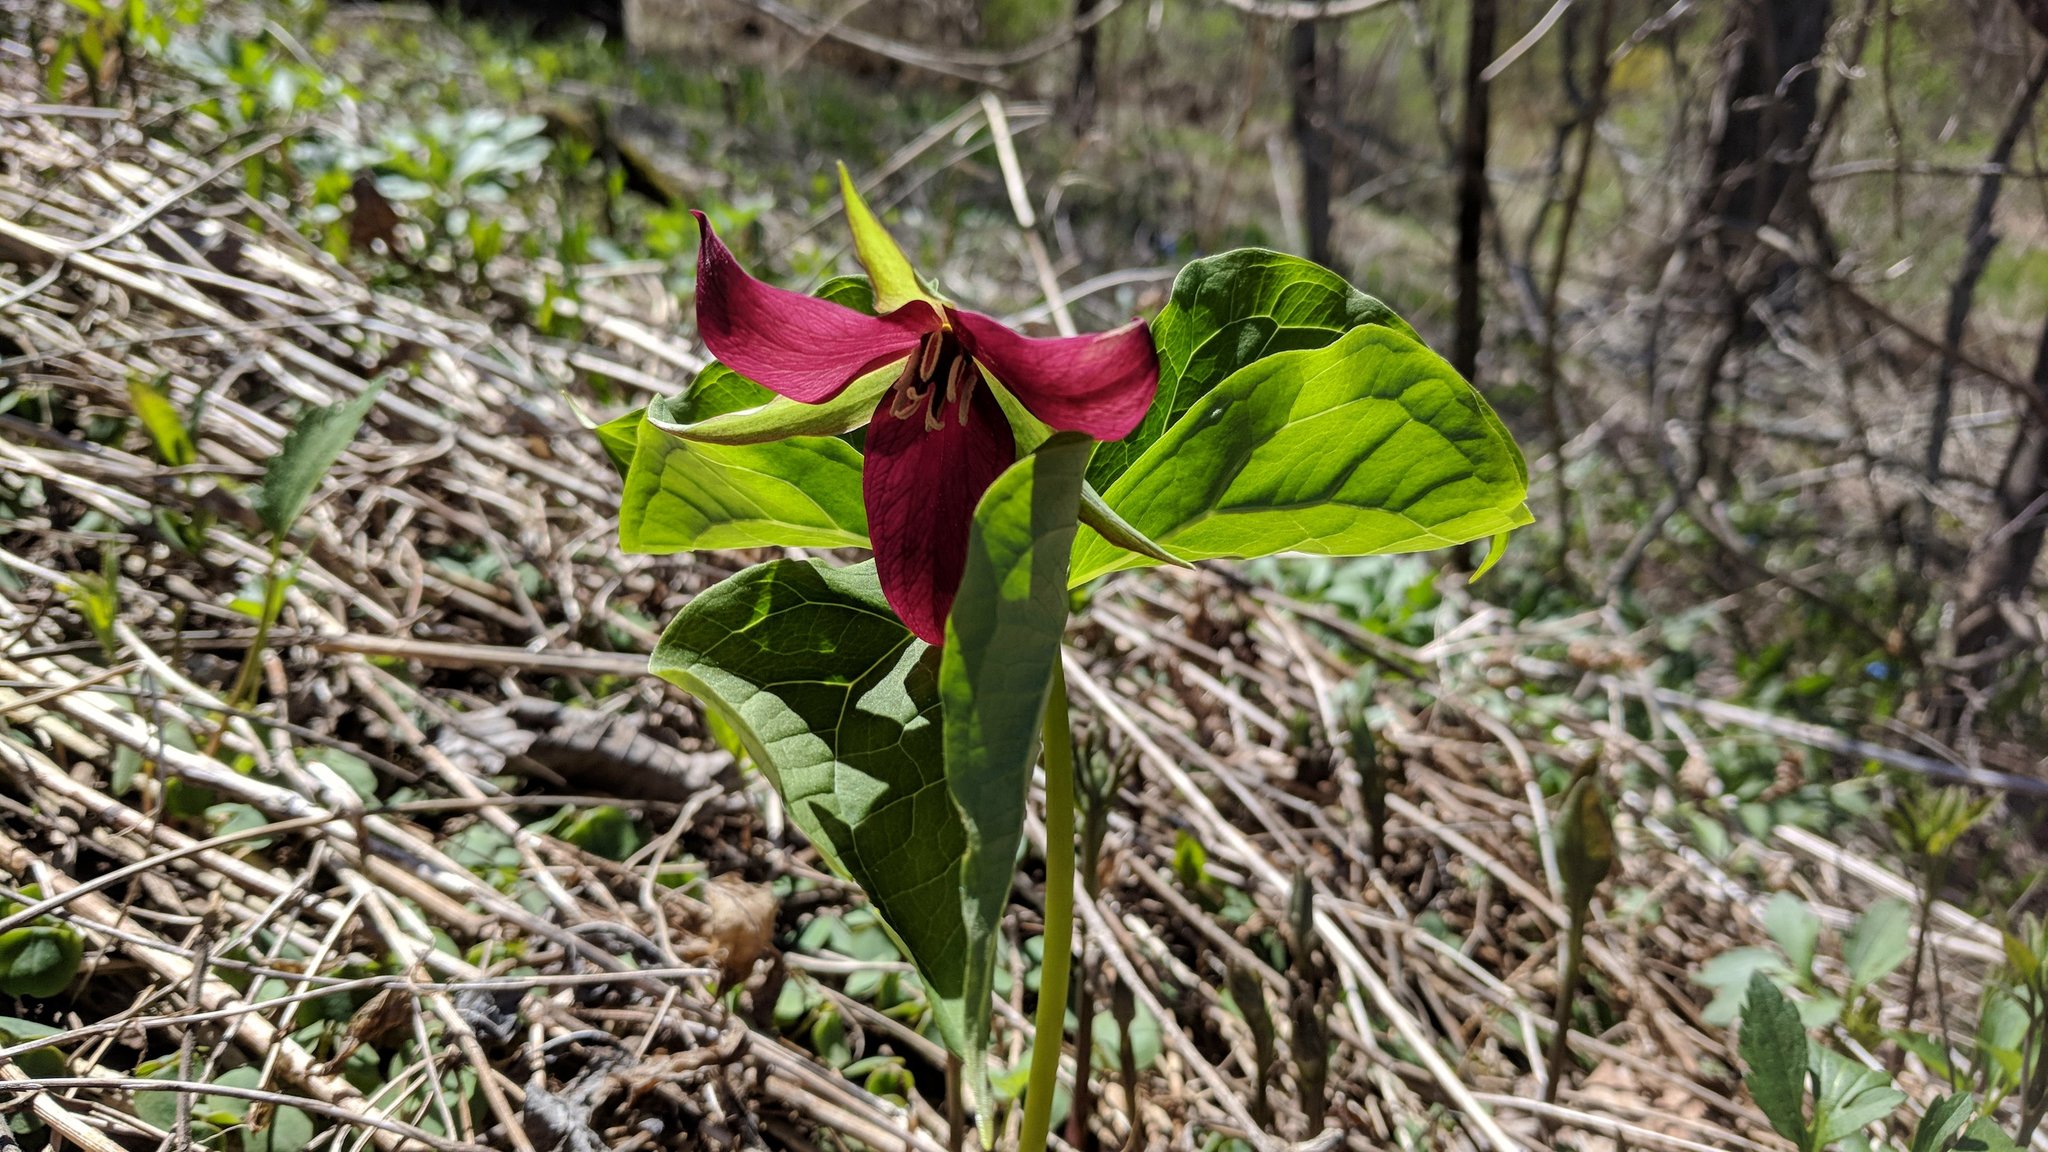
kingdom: Plantae
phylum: Tracheophyta
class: Liliopsida
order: Liliales
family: Melanthiaceae
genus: Trillium
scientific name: Trillium erectum
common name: Purple trillium
